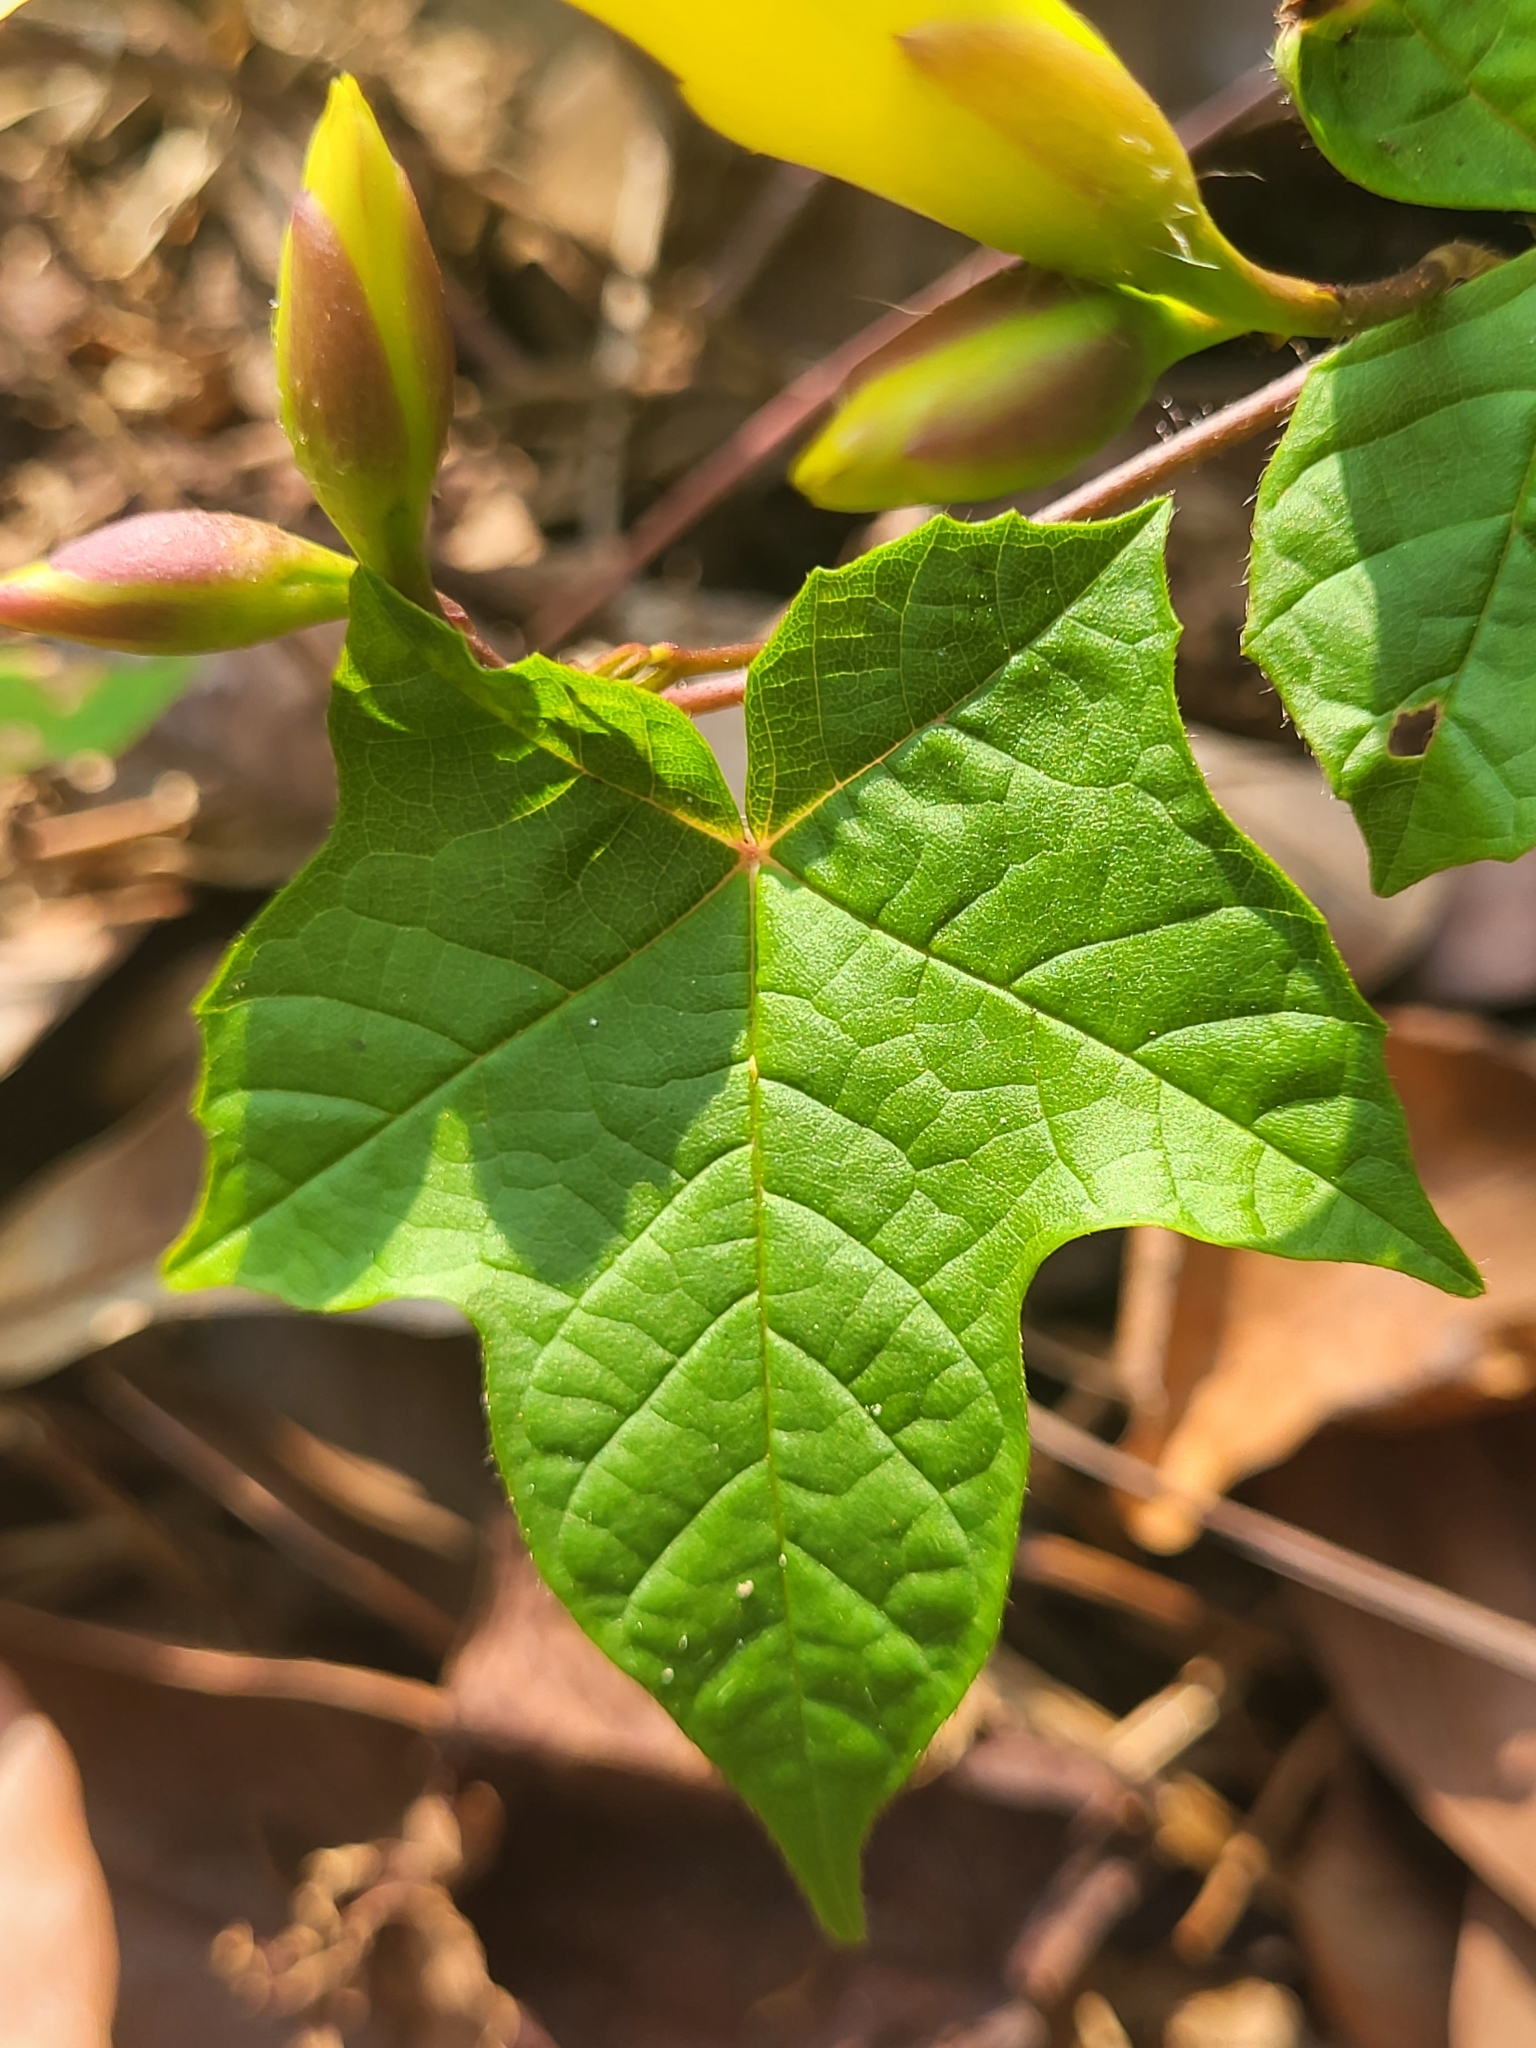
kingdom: Plantae
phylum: Tracheophyta
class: Magnoliopsida
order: Solanales
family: Convolvulaceae
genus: Distimake
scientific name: Distimake
